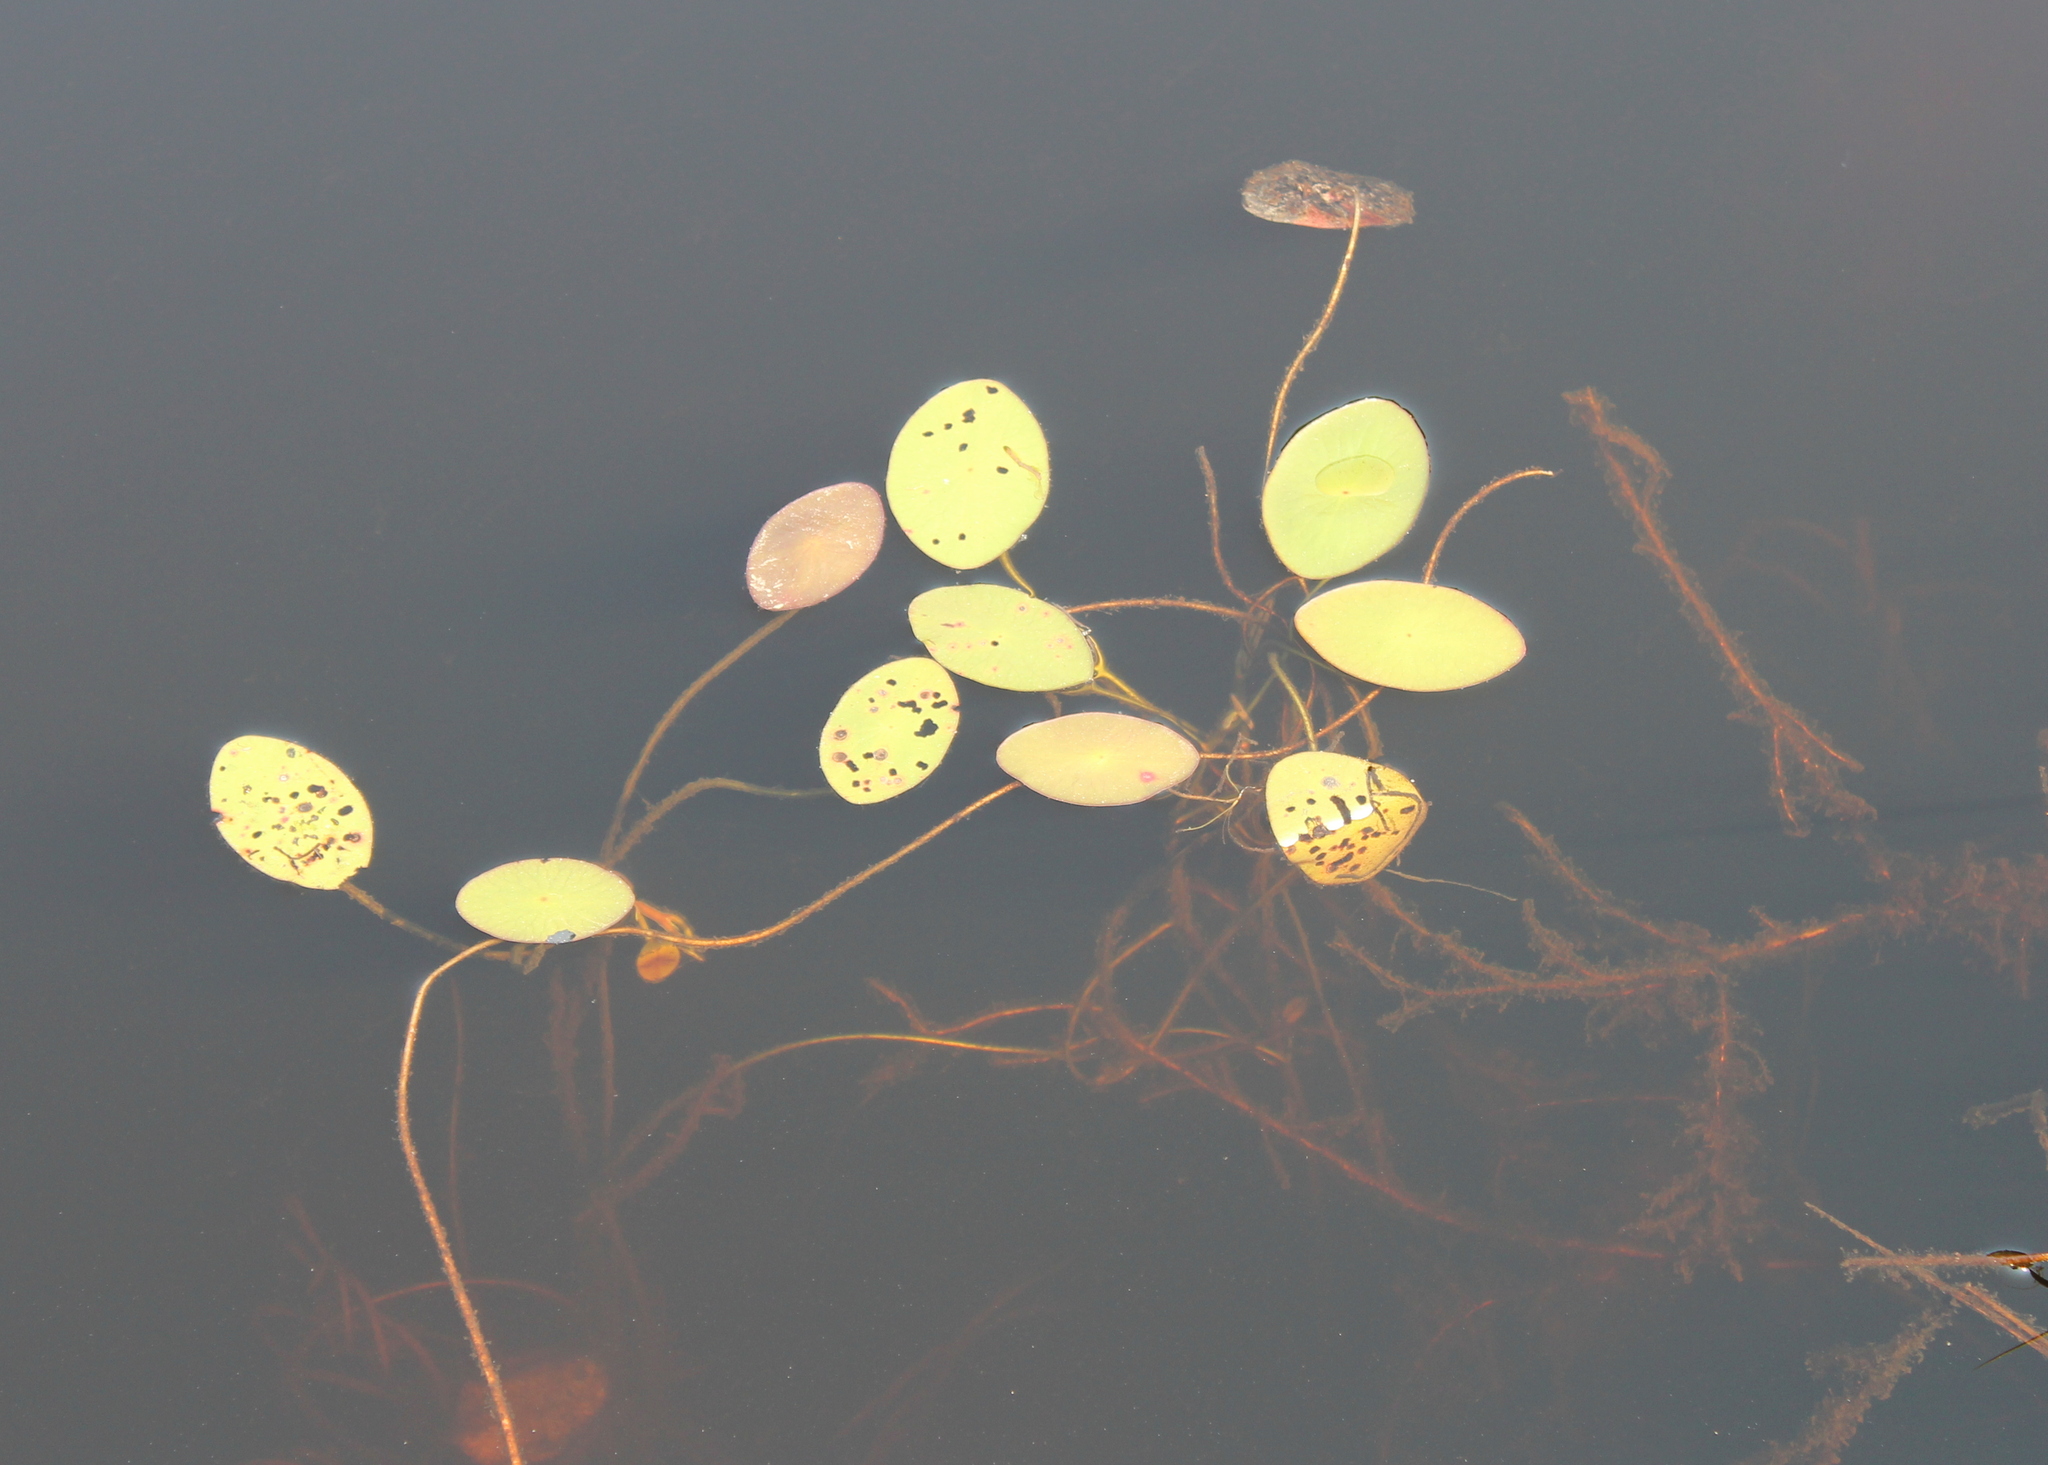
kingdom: Plantae
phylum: Tracheophyta
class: Magnoliopsida
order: Nymphaeales
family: Cabombaceae
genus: Brasenia
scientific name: Brasenia schreberi
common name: Water-shield
